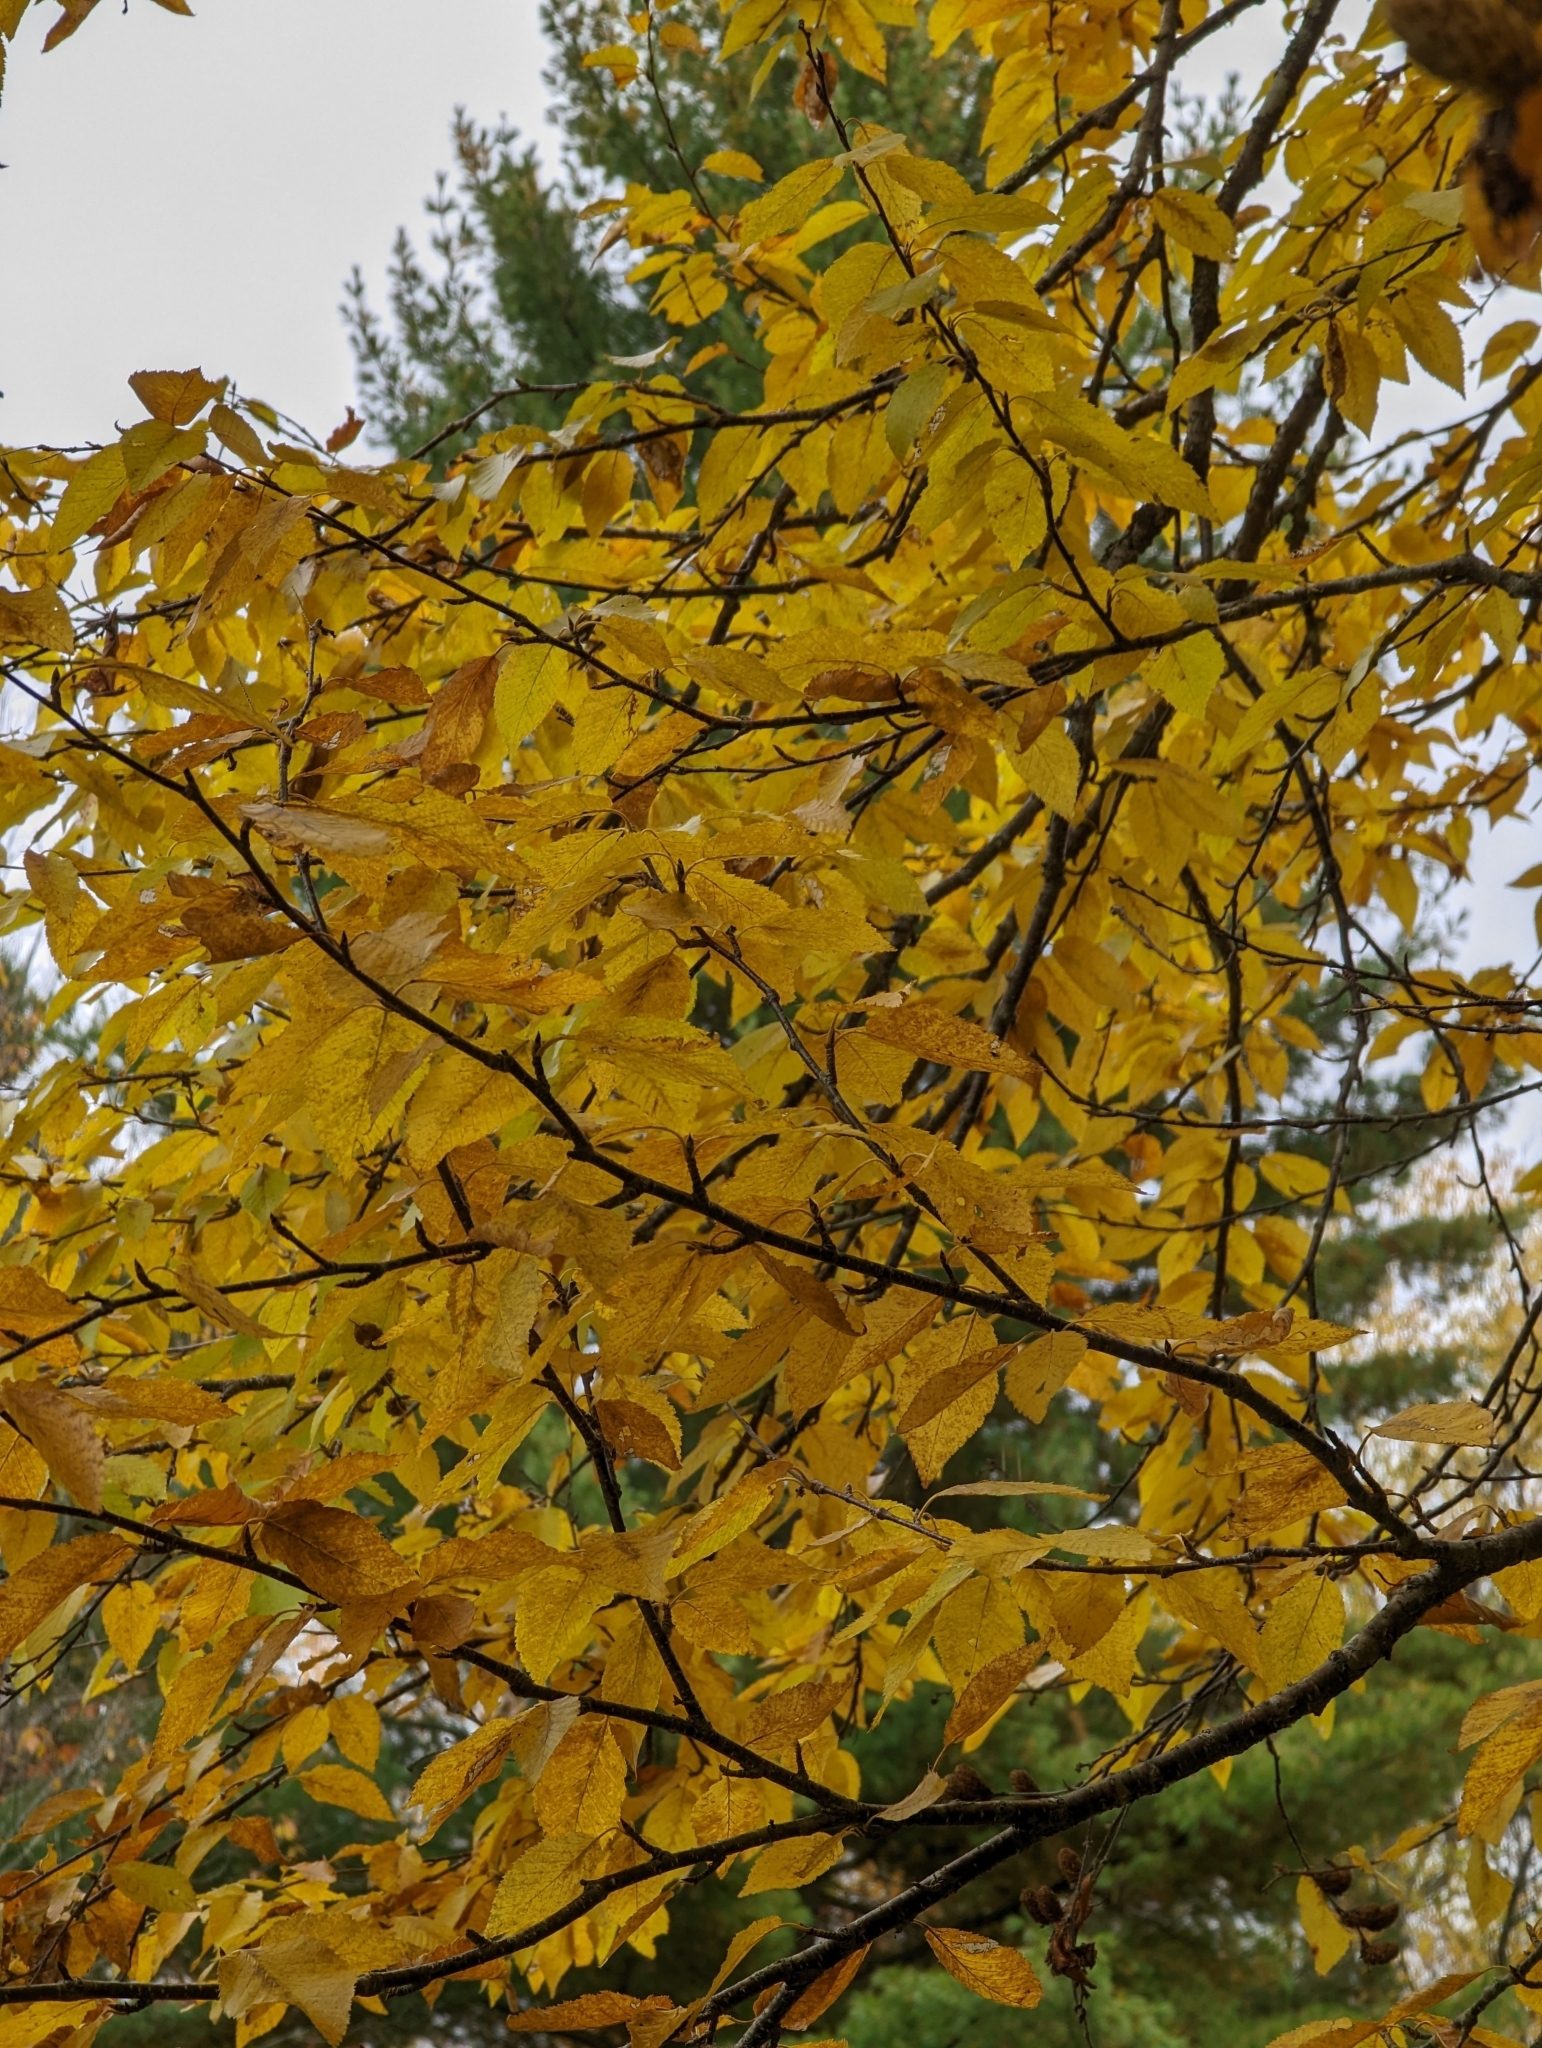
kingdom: Plantae
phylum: Tracheophyta
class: Magnoliopsida
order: Fagales
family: Betulaceae
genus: Betula
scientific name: Betula alleghaniensis
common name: Yellow birch
